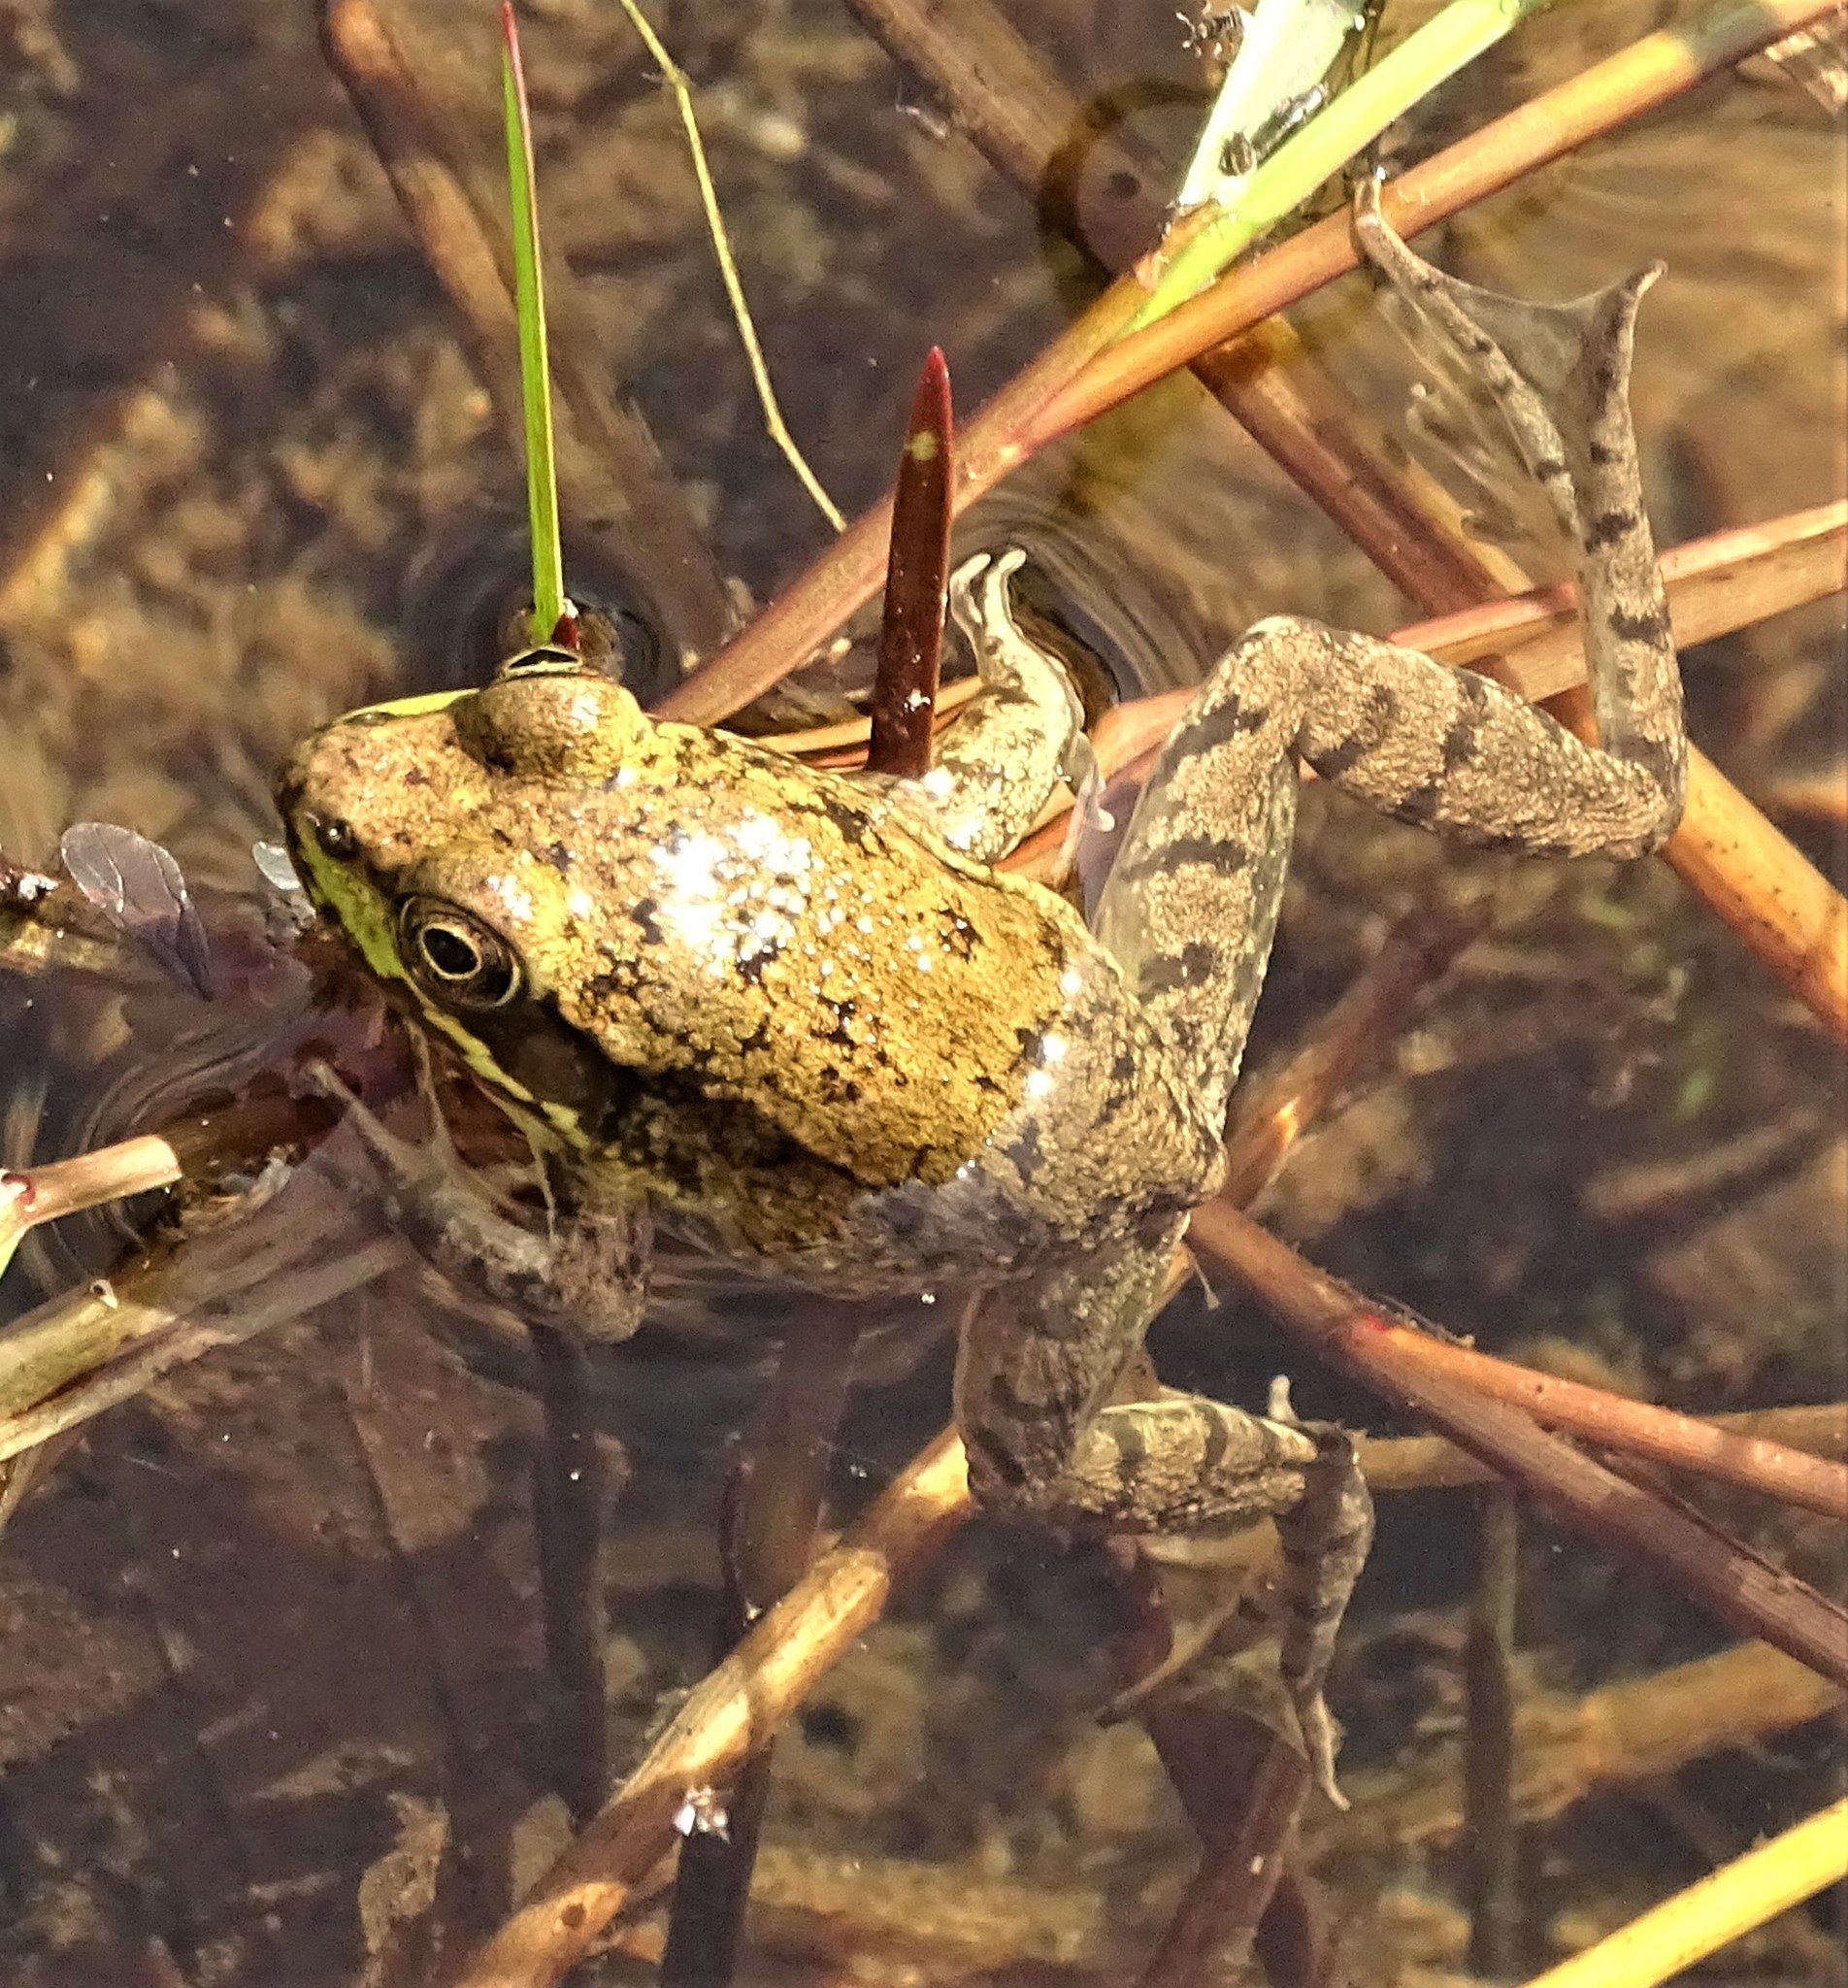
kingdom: Animalia
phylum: Chordata
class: Amphibia
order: Anura
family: Ranidae
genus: Lithobates
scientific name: Lithobates clamitans
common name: Green frog
